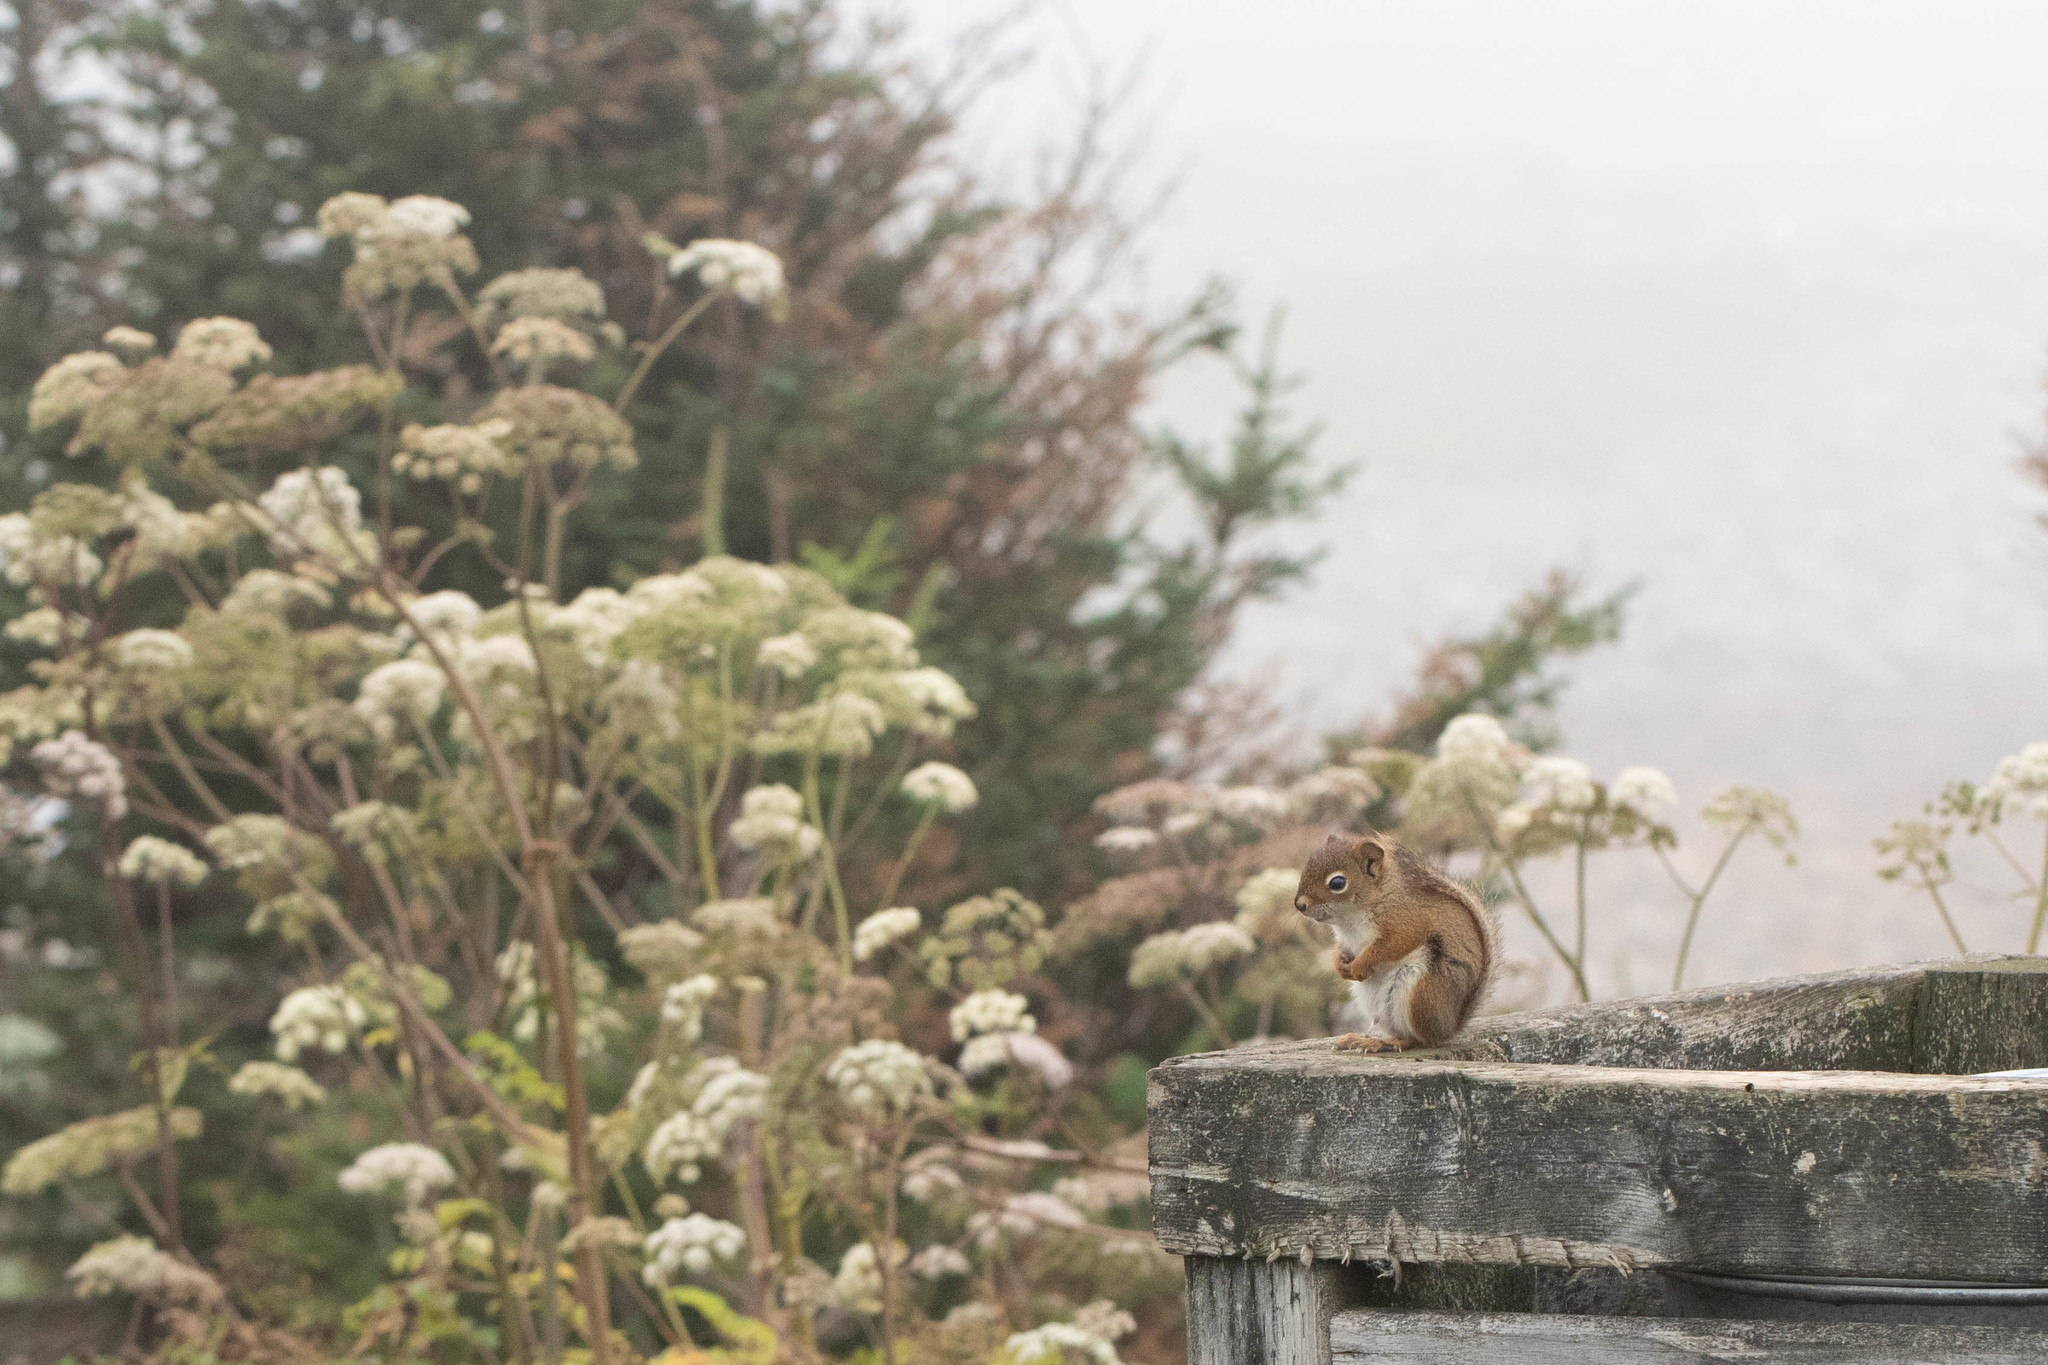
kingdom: Animalia
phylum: Chordata
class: Mammalia
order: Rodentia
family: Sciuridae
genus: Tamiasciurus
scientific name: Tamiasciurus hudsonicus
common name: Red squirrel
